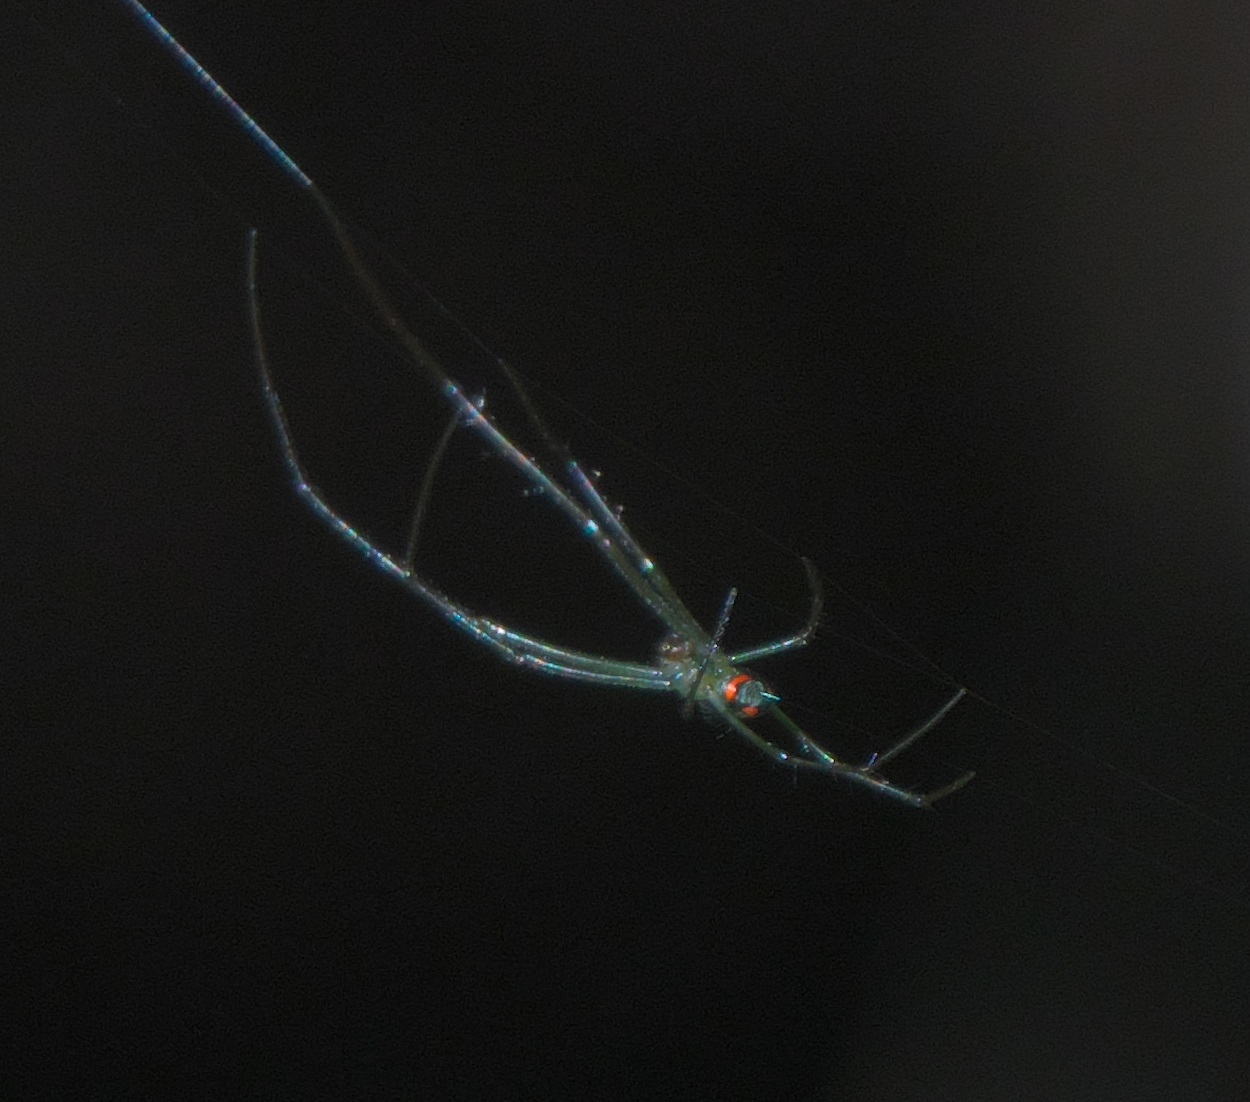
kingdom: Animalia
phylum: Arthropoda
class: Arachnida
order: Araneae
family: Tetragnathidae
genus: Leucauge
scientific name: Leucauge argyrobapta
